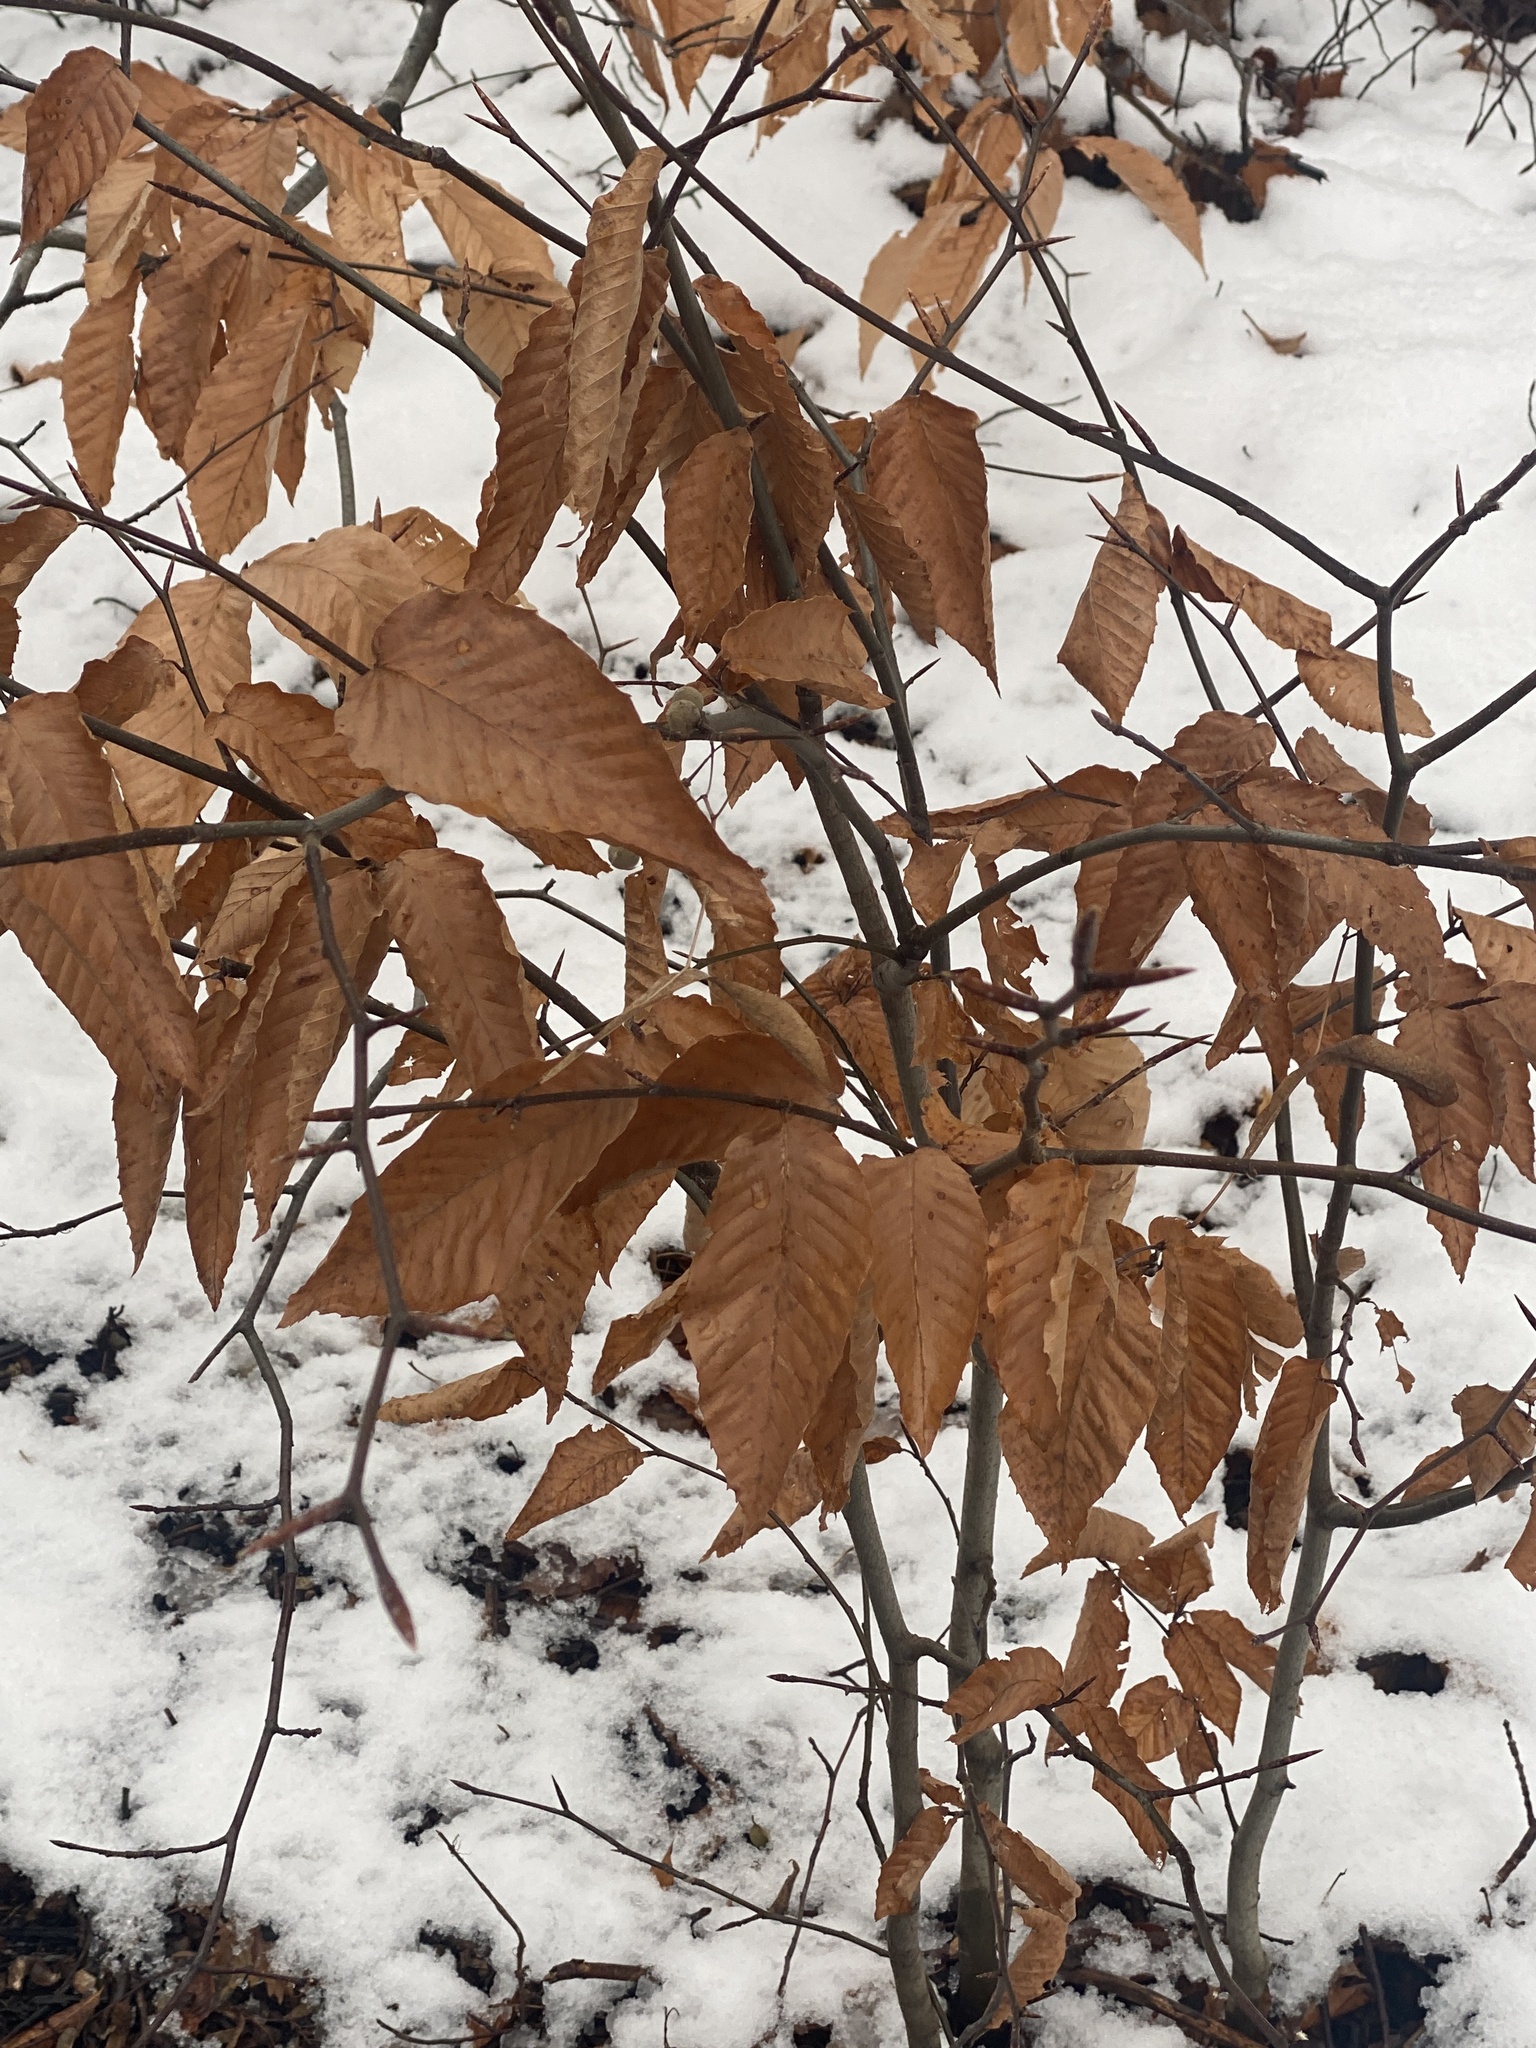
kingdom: Plantae
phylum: Tracheophyta
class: Magnoliopsida
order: Fagales
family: Fagaceae
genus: Fagus
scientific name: Fagus grandifolia
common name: American beech
